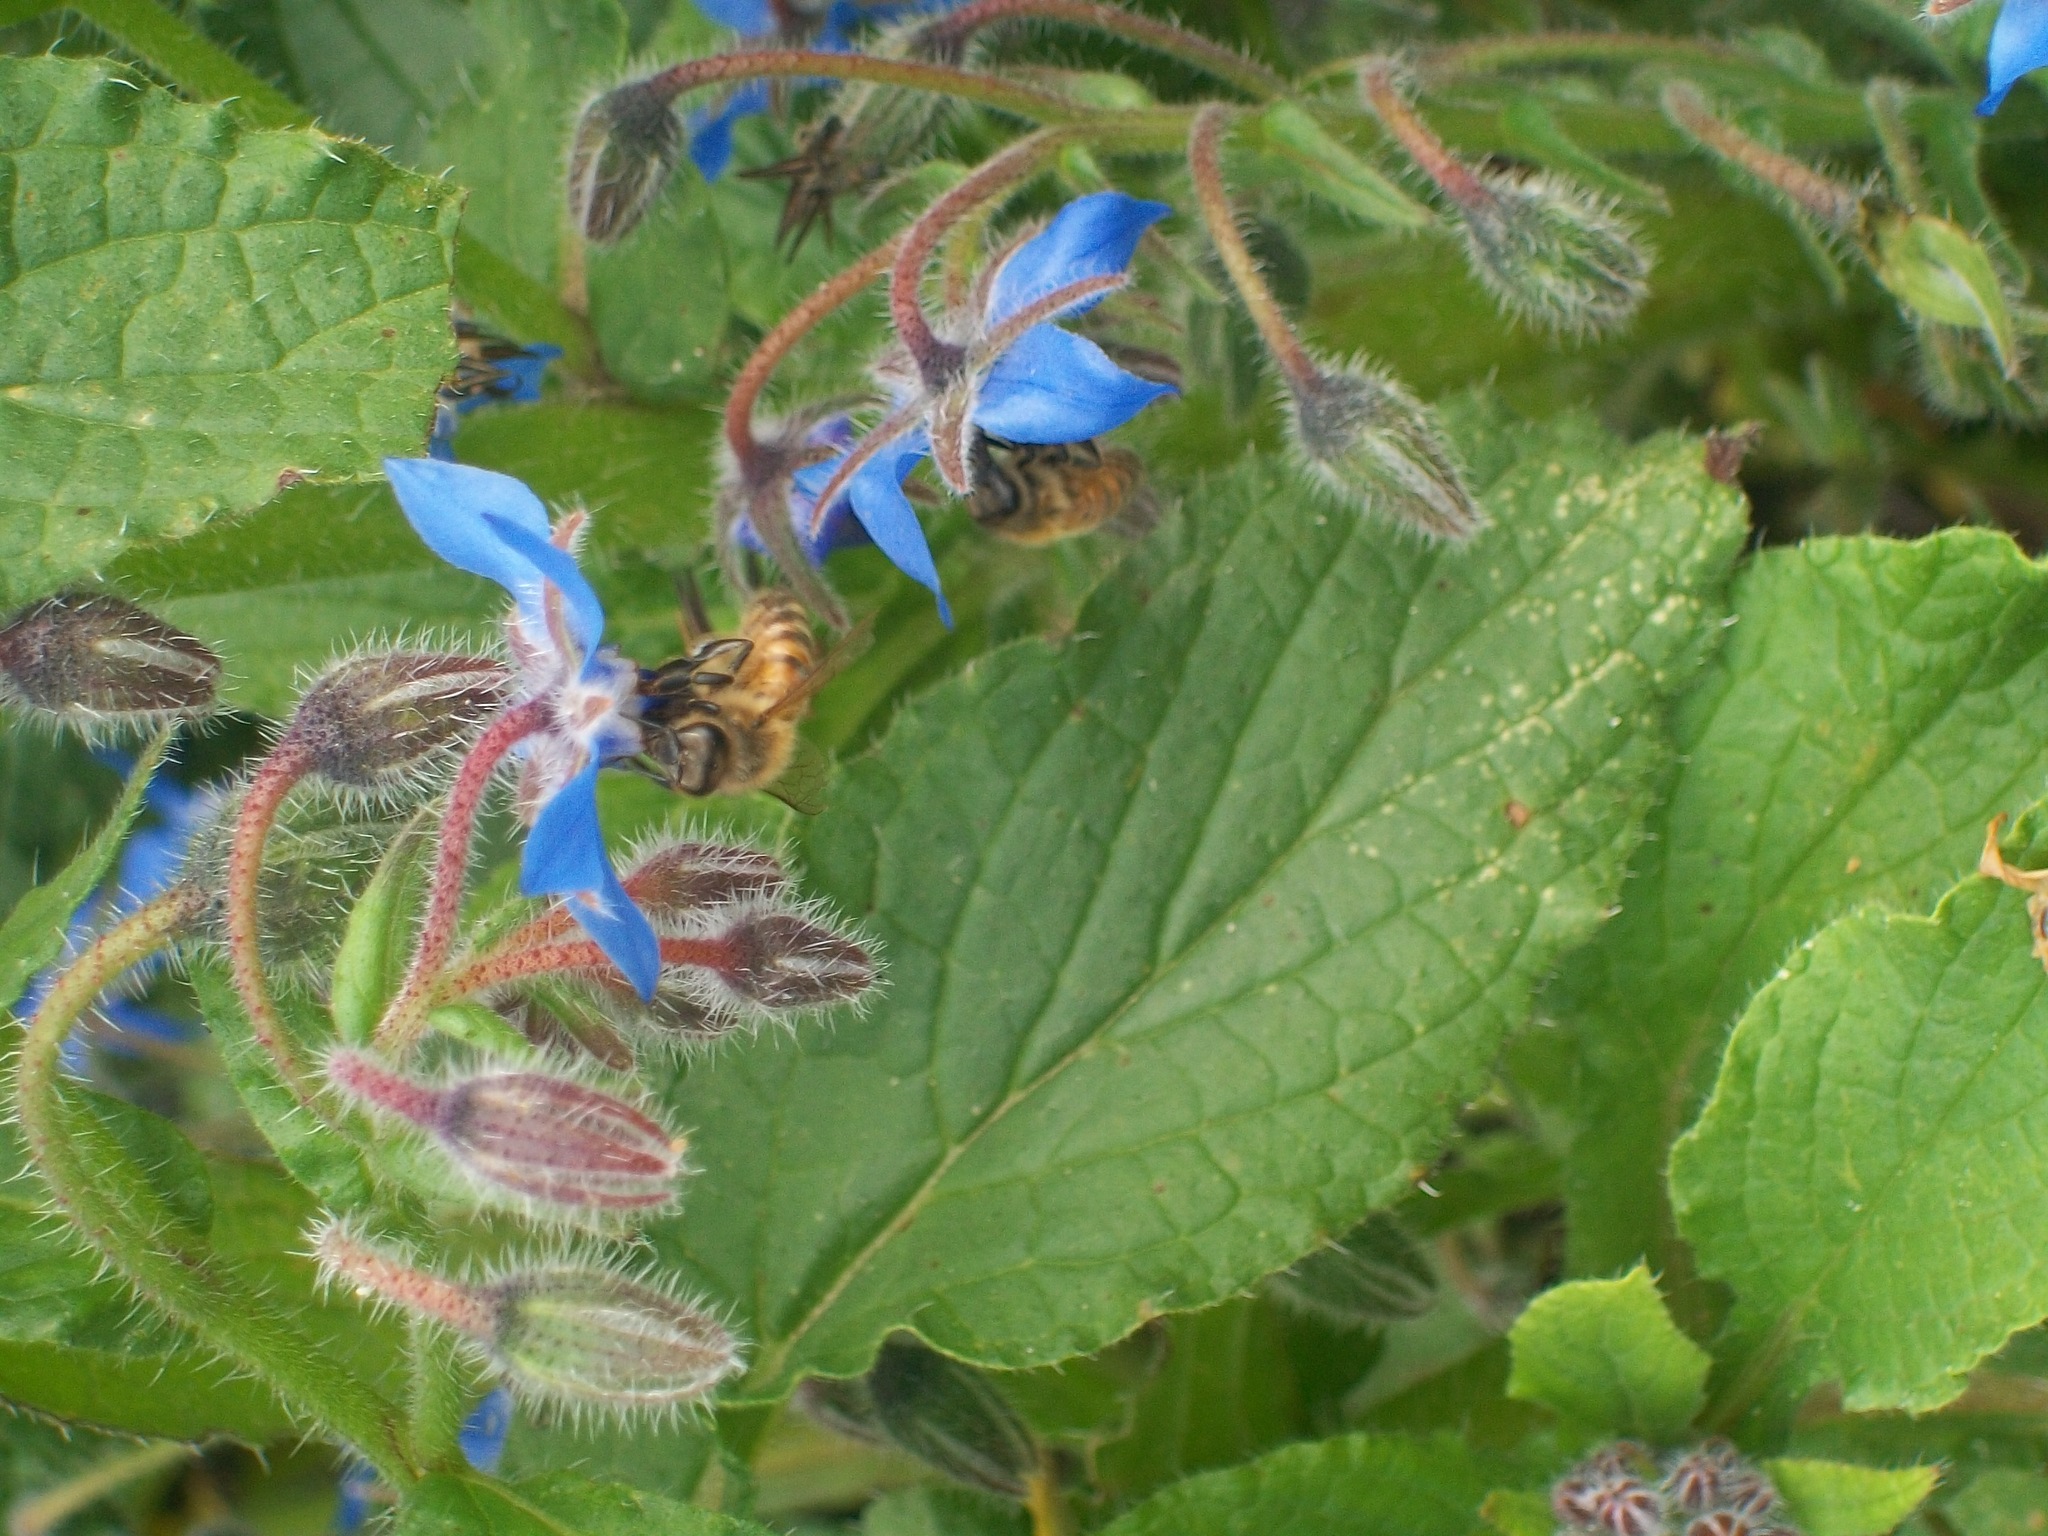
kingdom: Animalia
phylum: Arthropoda
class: Insecta
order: Hymenoptera
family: Apidae
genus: Apis
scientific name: Apis mellifera
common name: Honey bee
